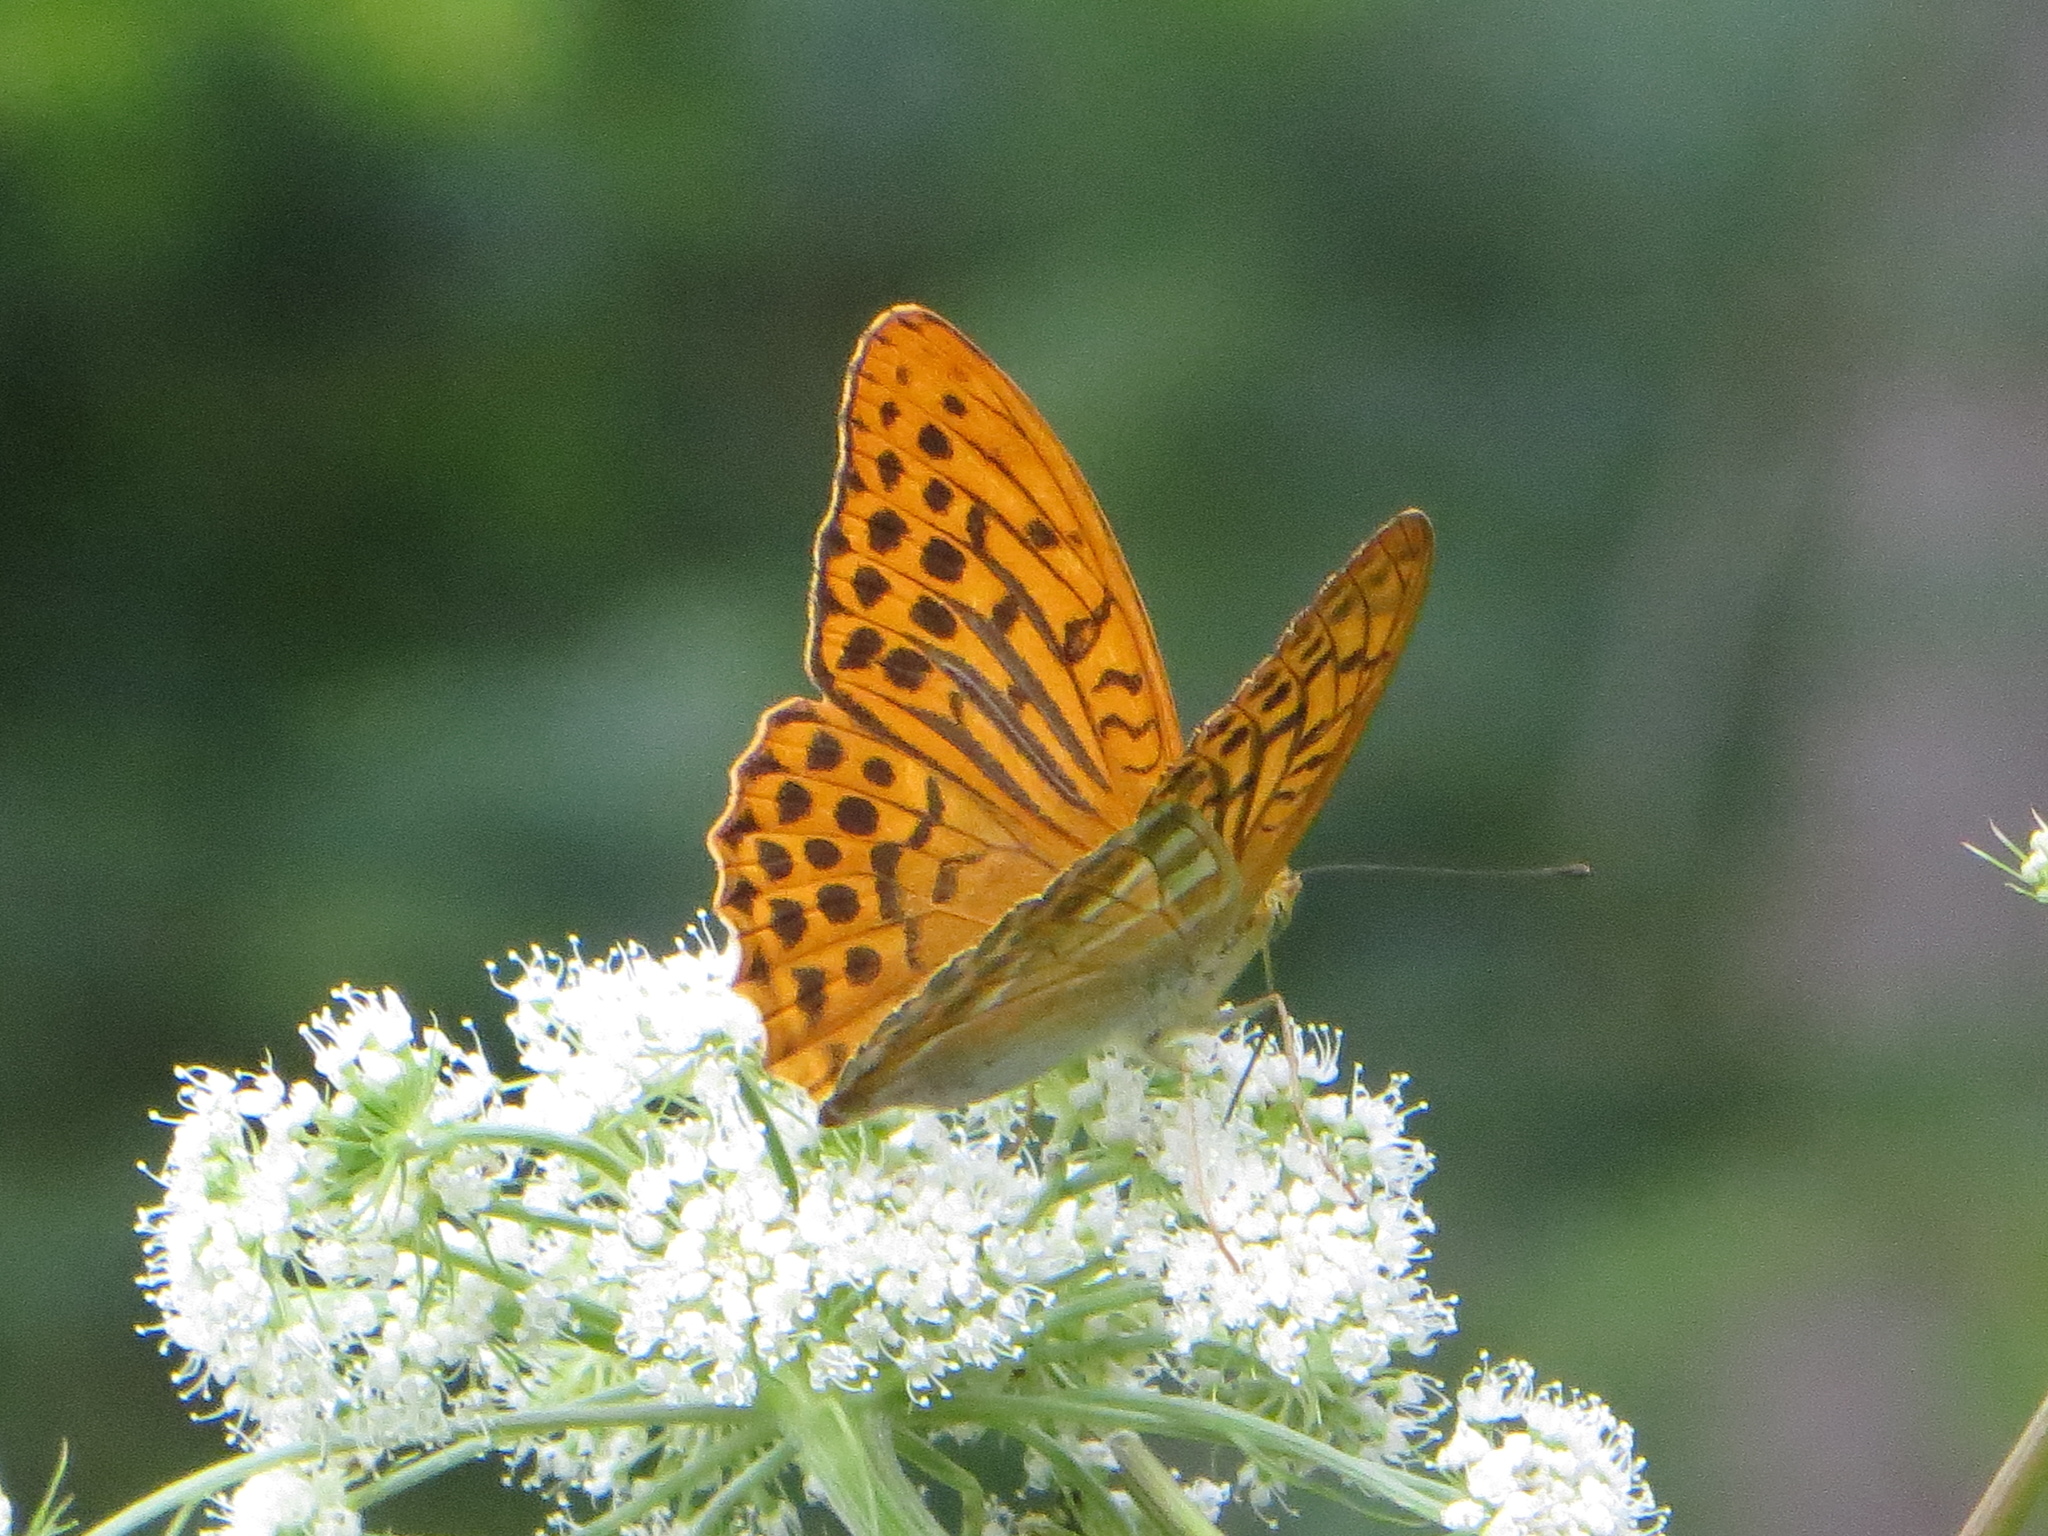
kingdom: Animalia
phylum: Arthropoda
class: Insecta
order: Lepidoptera
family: Nymphalidae
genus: Argynnis
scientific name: Argynnis paphia
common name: Silver-washed fritillary
